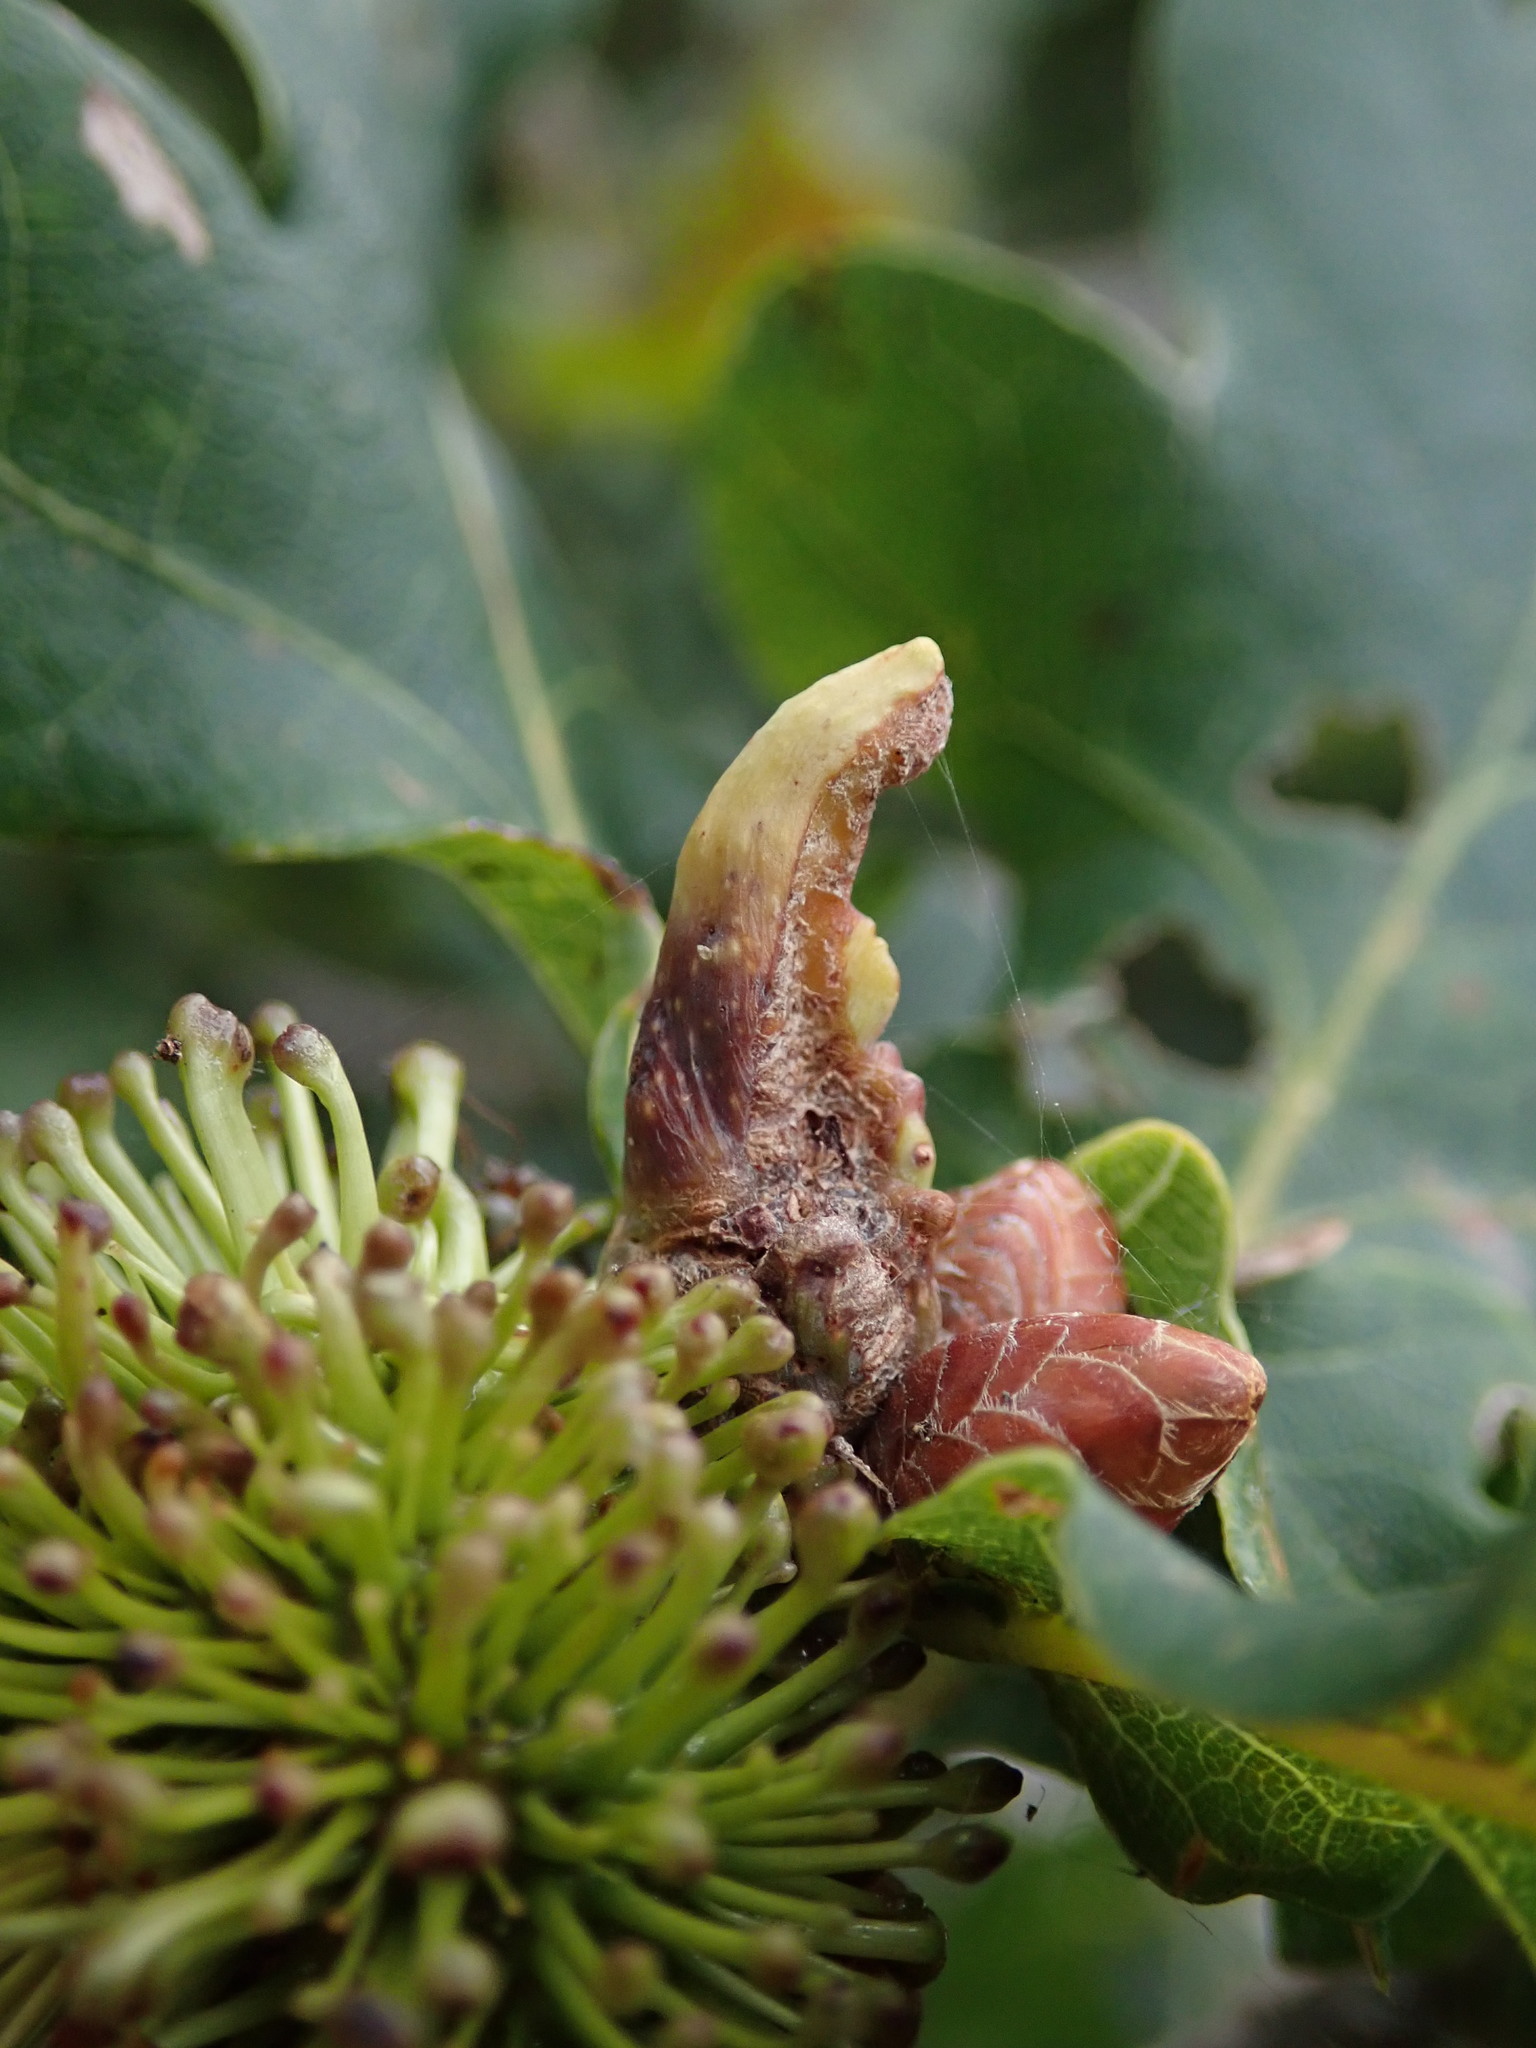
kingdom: Animalia
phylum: Arthropoda
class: Insecta
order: Hymenoptera
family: Cynipidae
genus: Andricus
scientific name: Andricus aries
